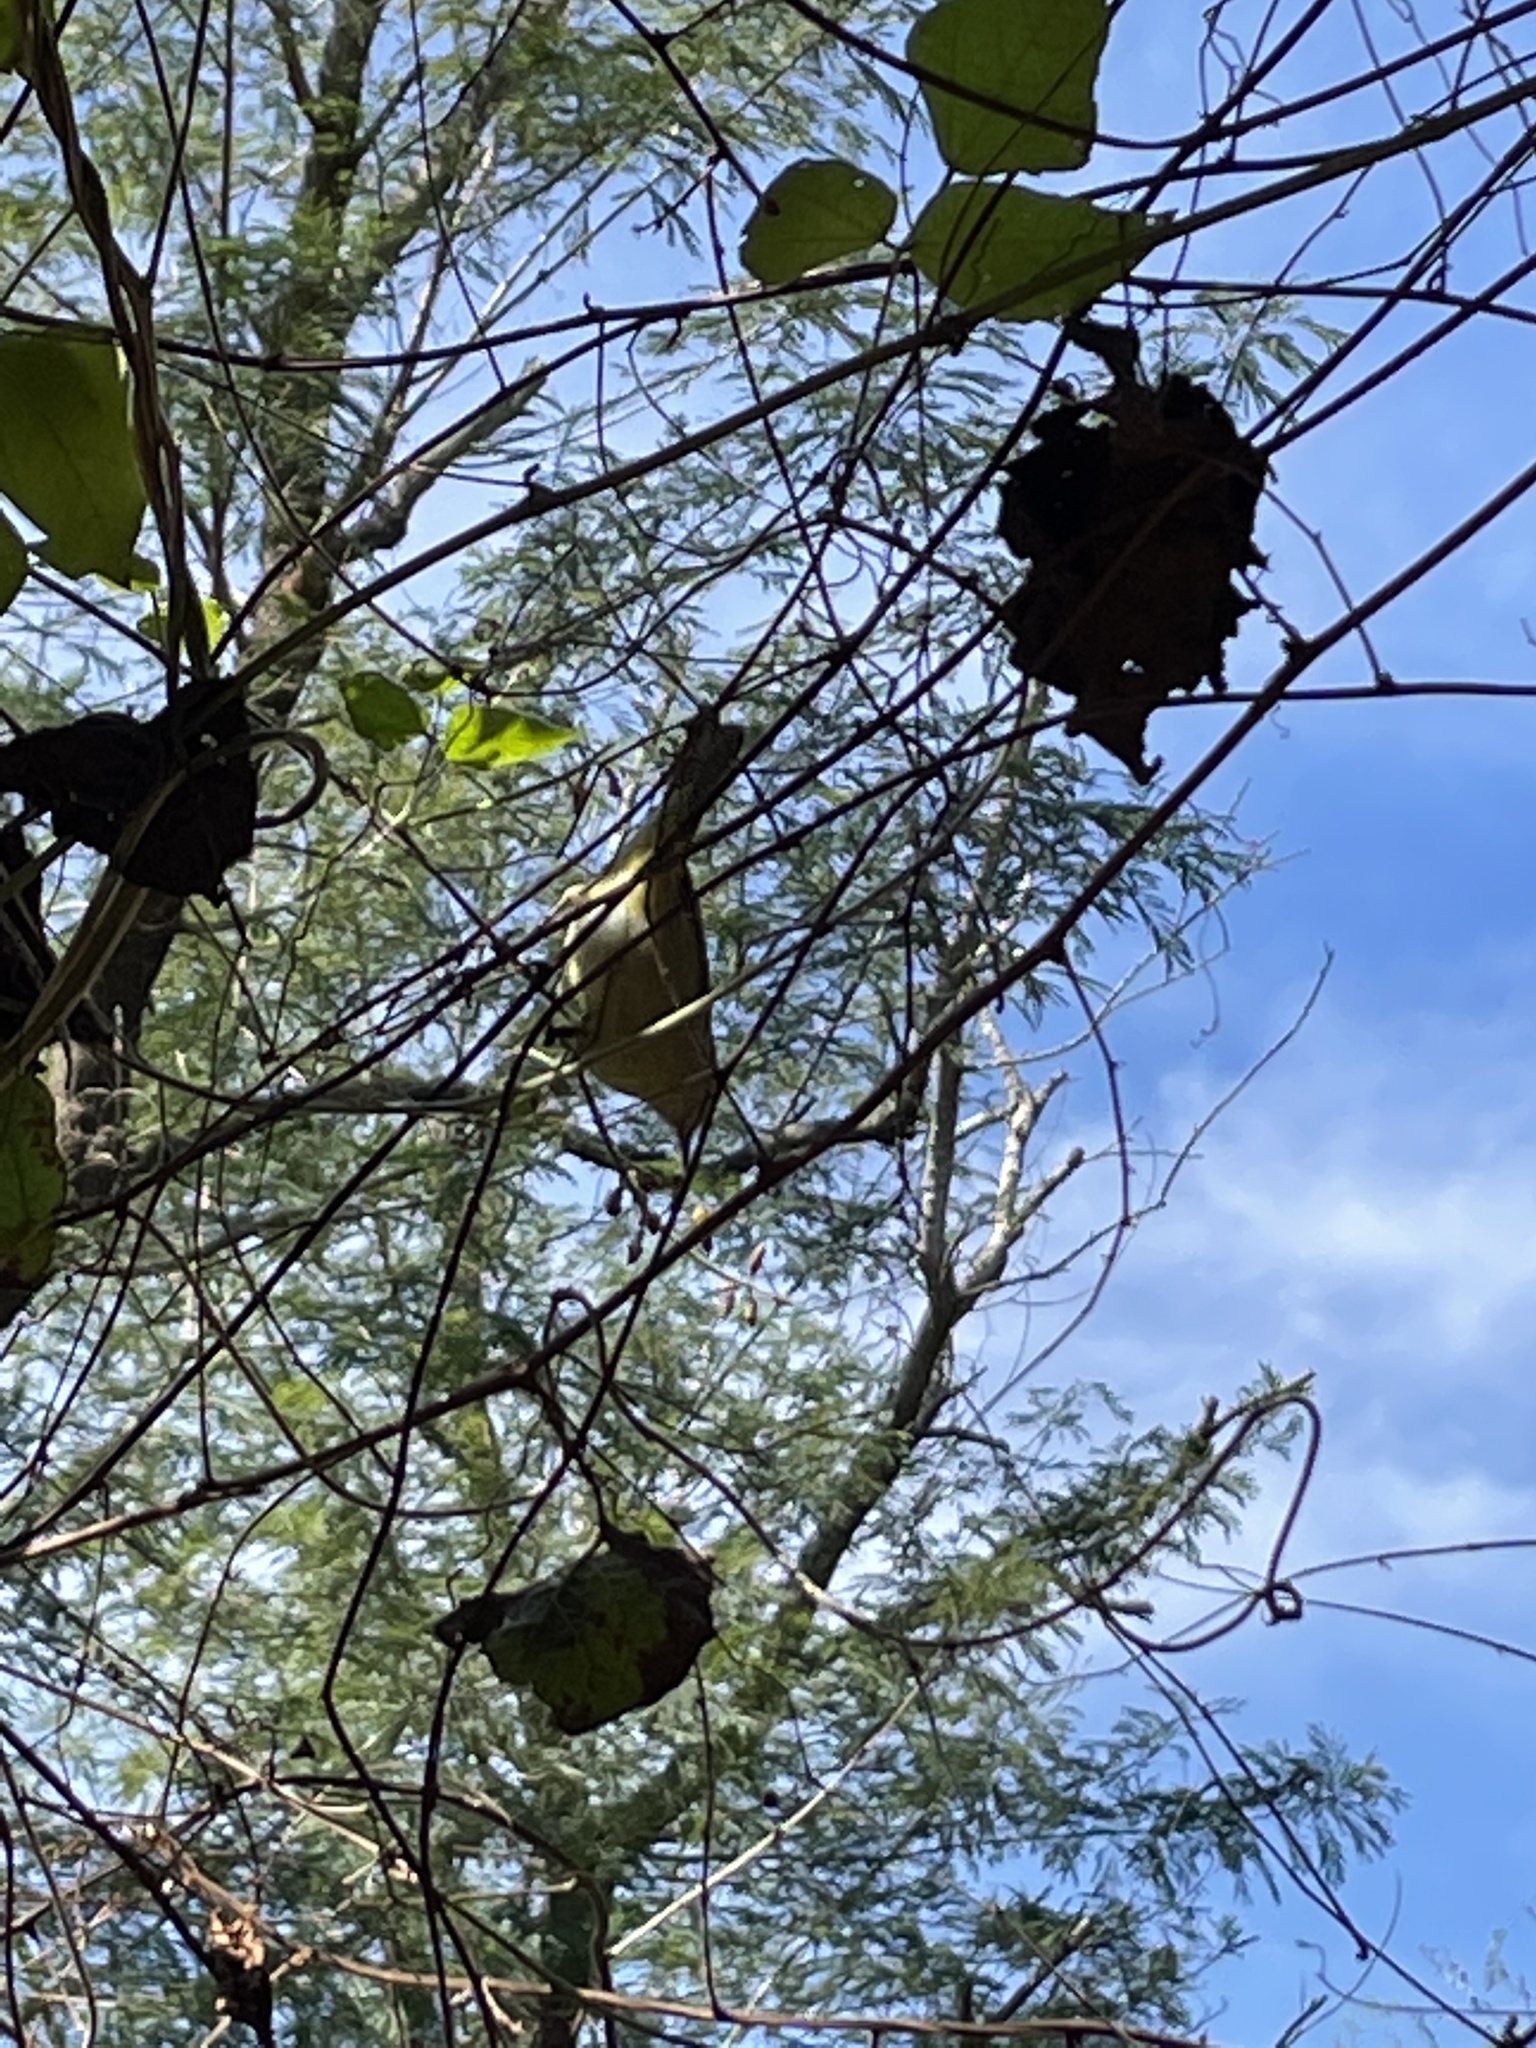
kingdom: Animalia
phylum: Chordata
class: Aves
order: Passeriformes
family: Parulidae
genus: Leiothlypis
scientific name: Leiothlypis celata
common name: Orange-crowned warbler
